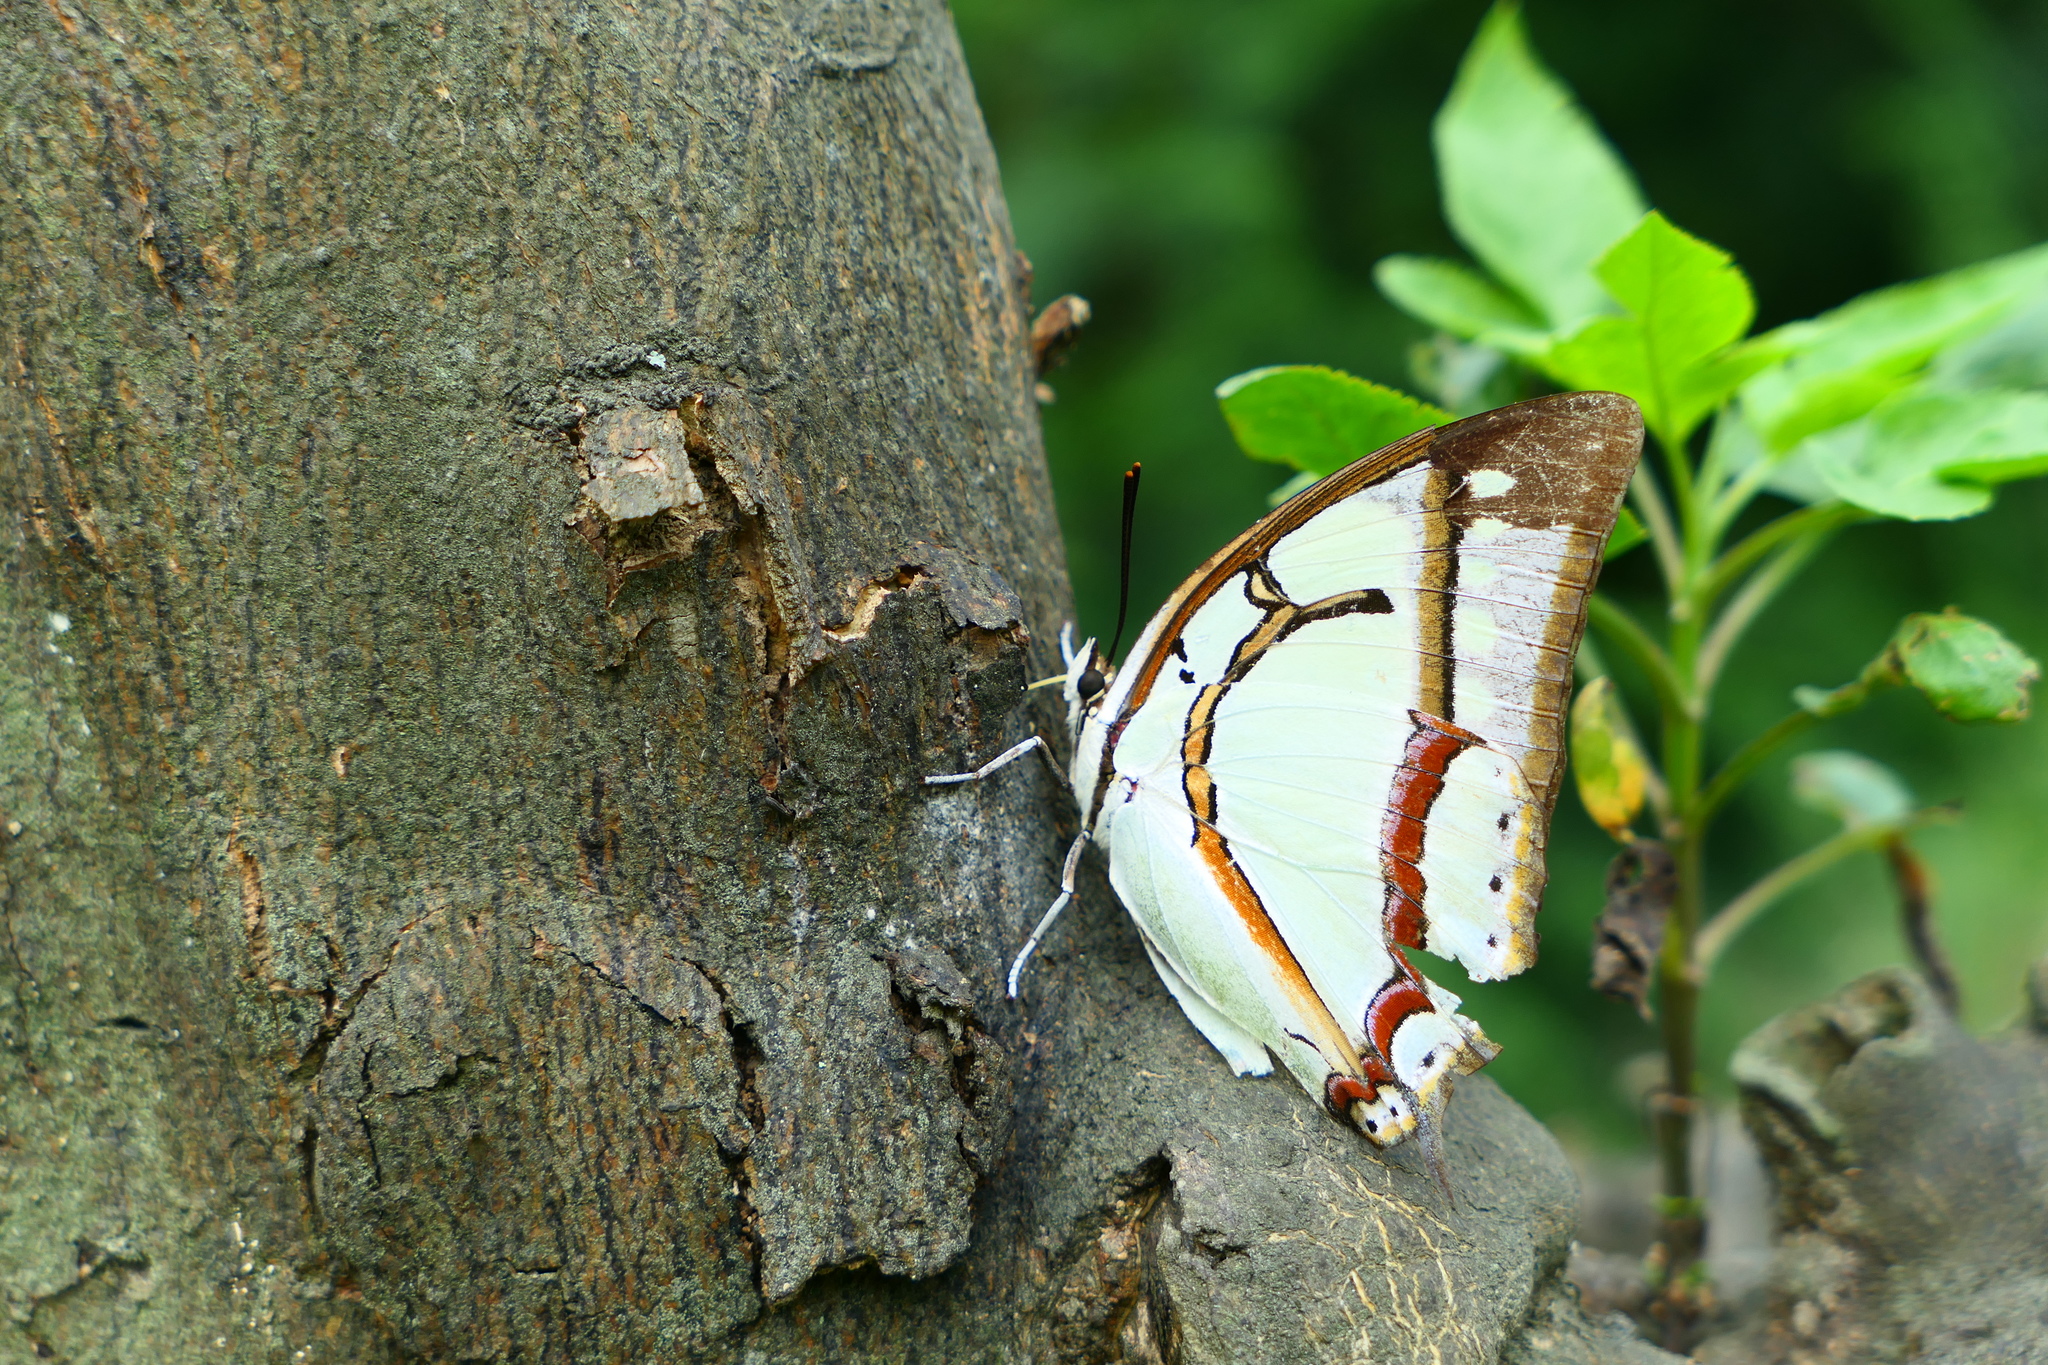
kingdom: Animalia
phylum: Arthropoda
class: Insecta
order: Lepidoptera
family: Nymphalidae
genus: Charaxes
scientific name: Charaxes narcaea
